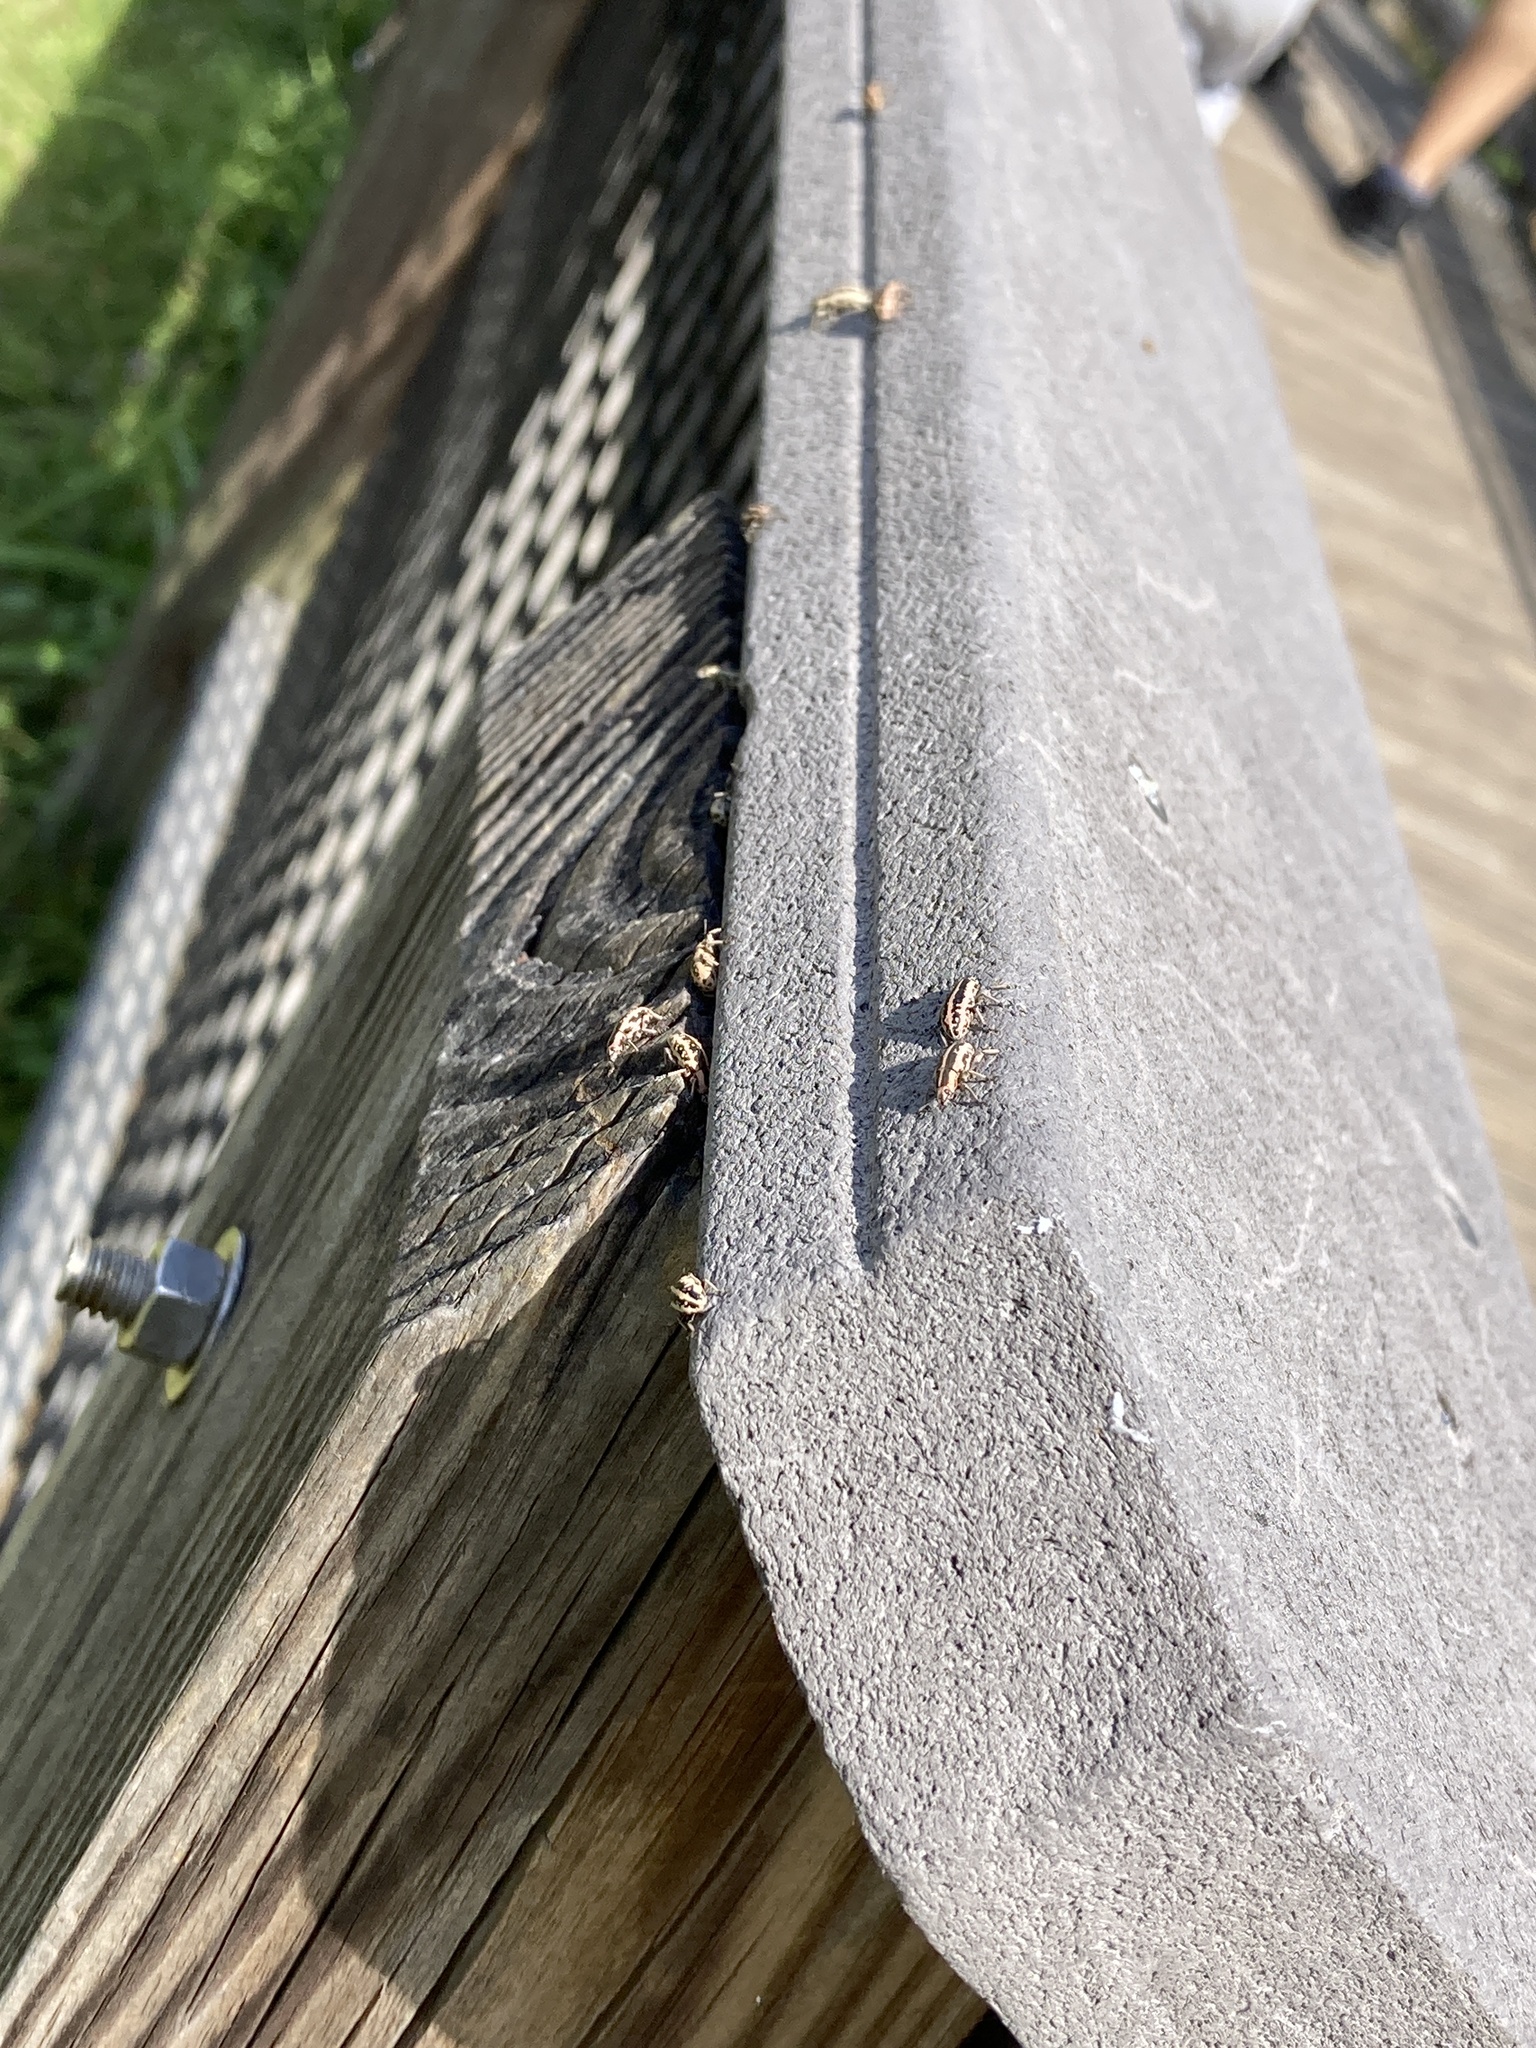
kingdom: Animalia
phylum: Arthropoda
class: Insecta
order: Coleoptera
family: Curculionidae
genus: Eudiagogus
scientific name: Eudiagogus rosenschoeldi
